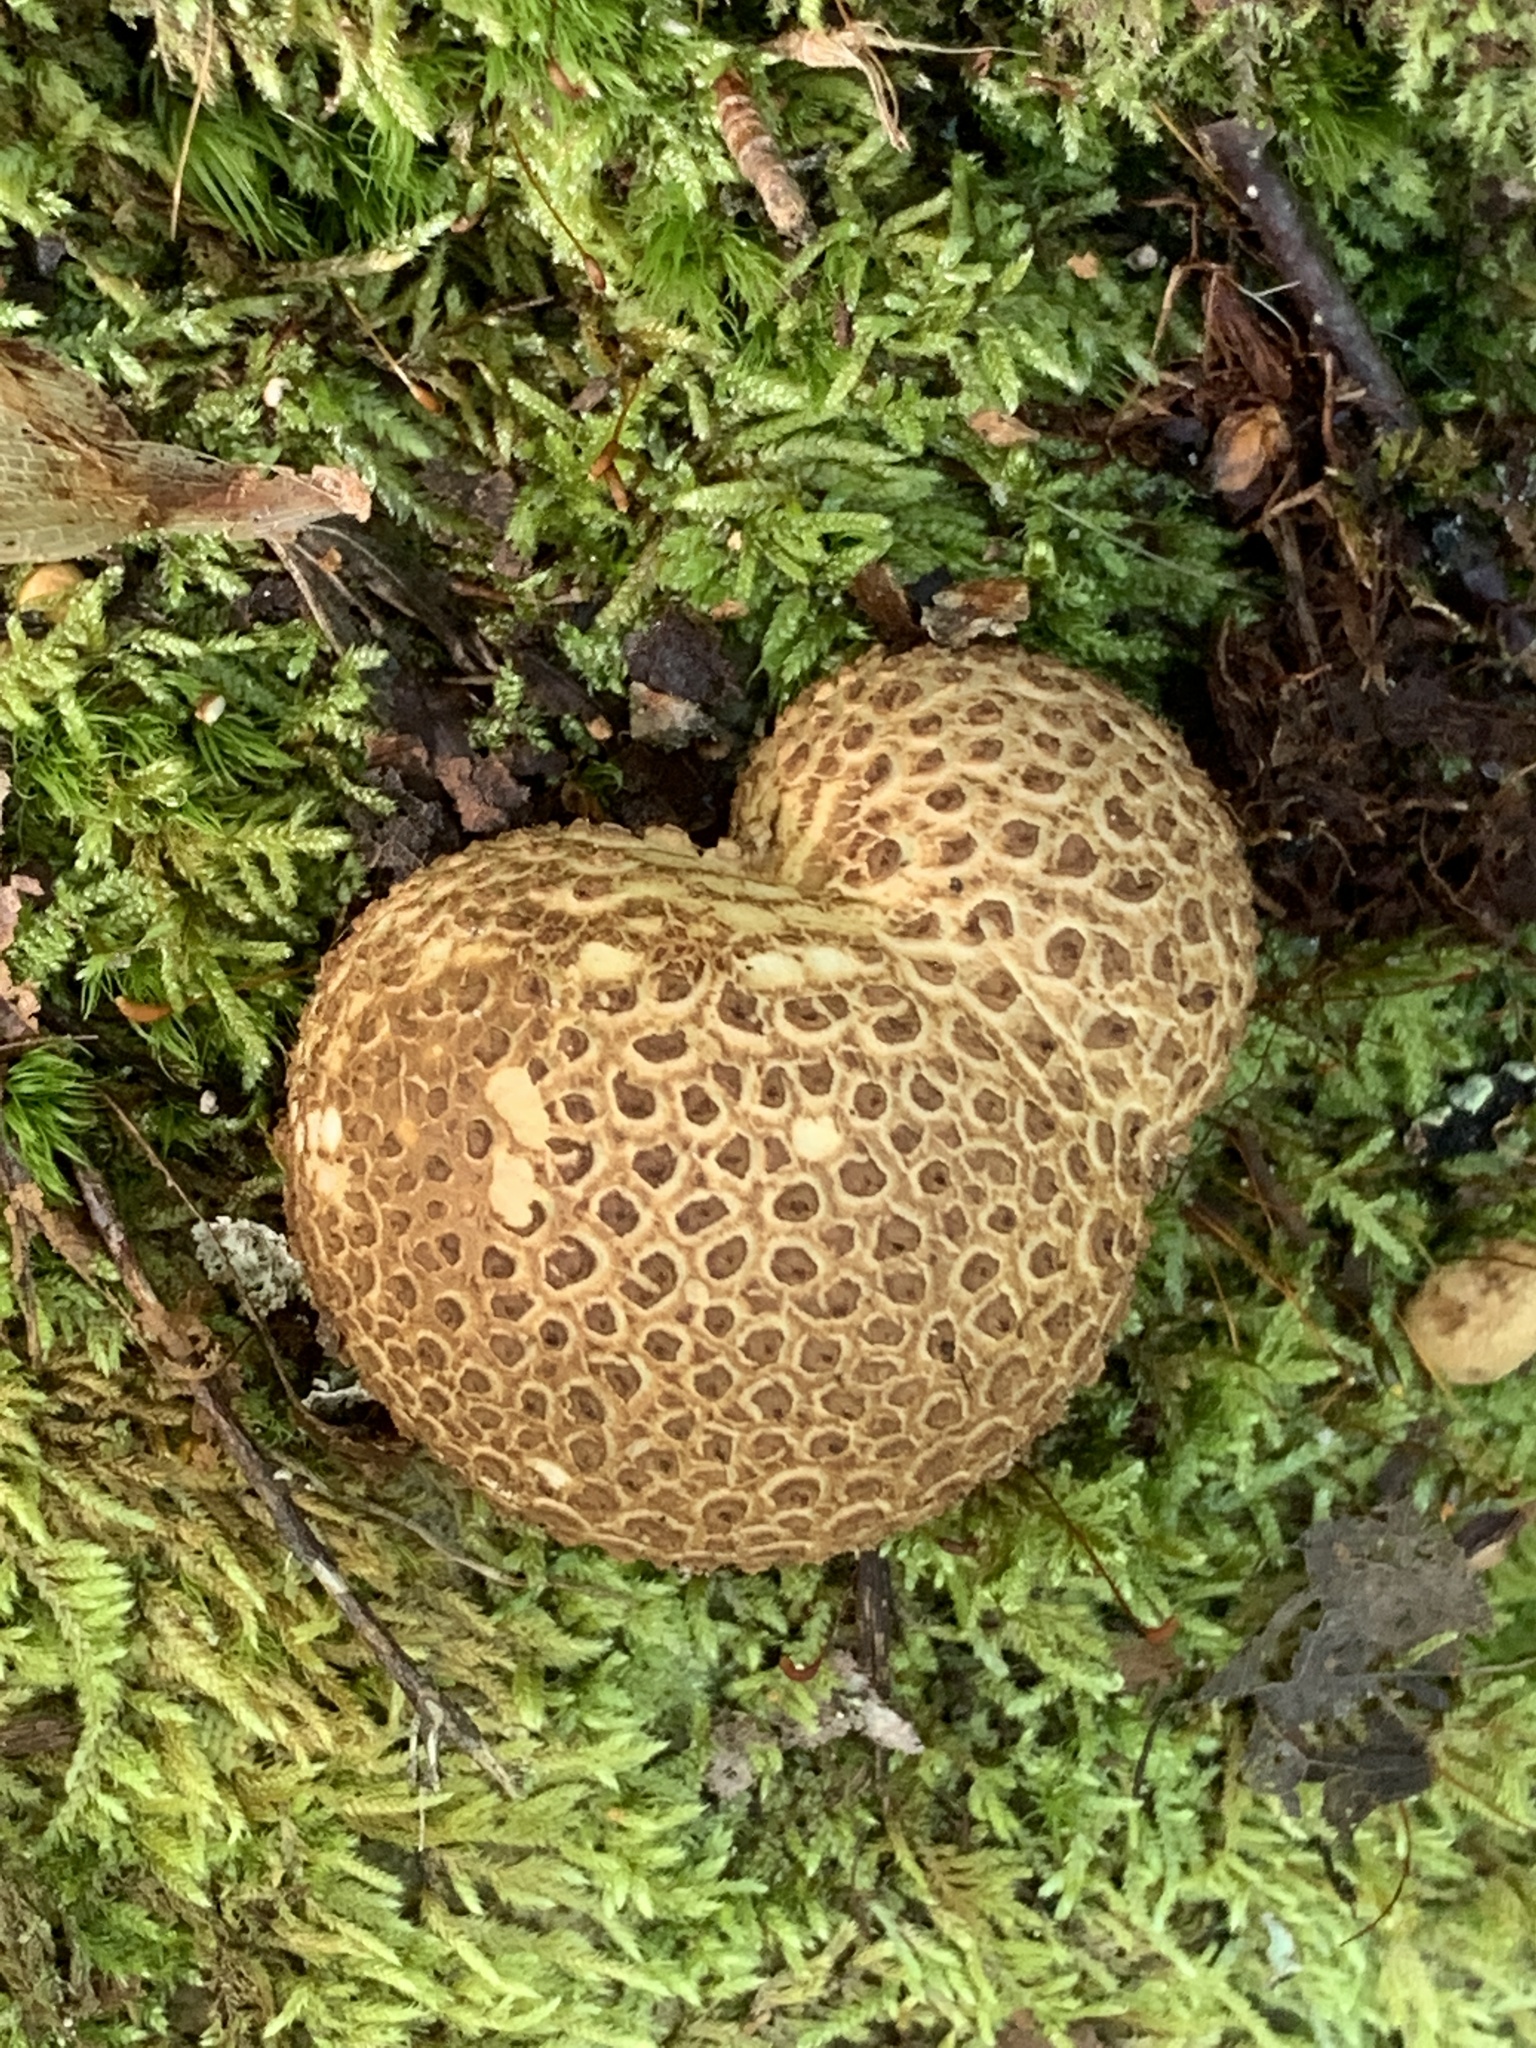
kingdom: Fungi
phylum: Basidiomycota
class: Agaricomycetes
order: Boletales
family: Sclerodermataceae
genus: Scleroderma
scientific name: Scleroderma citrinum
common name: Common earthball
